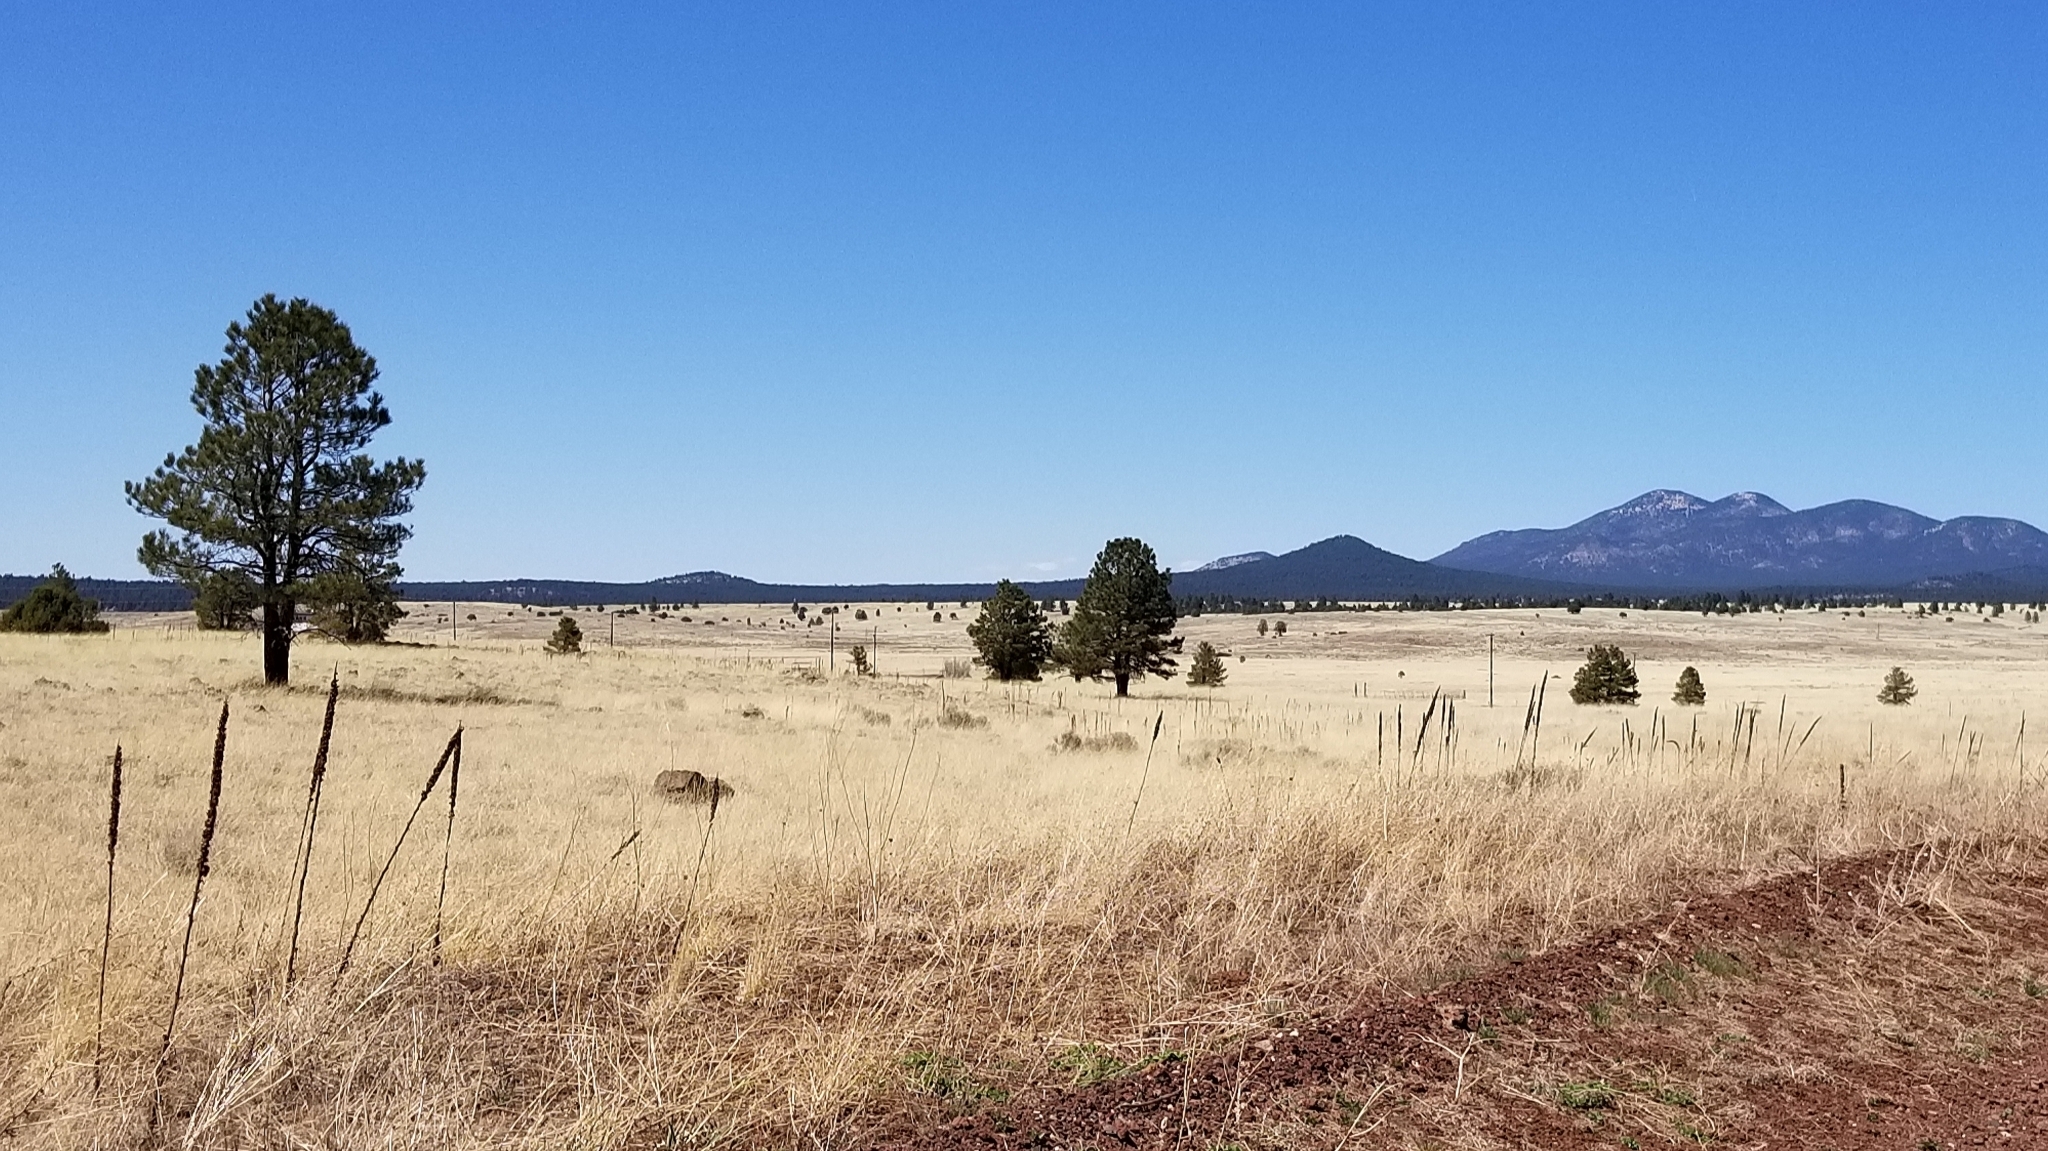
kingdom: Plantae
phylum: Tracheophyta
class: Magnoliopsida
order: Lamiales
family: Scrophulariaceae
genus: Verbascum
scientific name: Verbascum thapsus
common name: Common mullein
